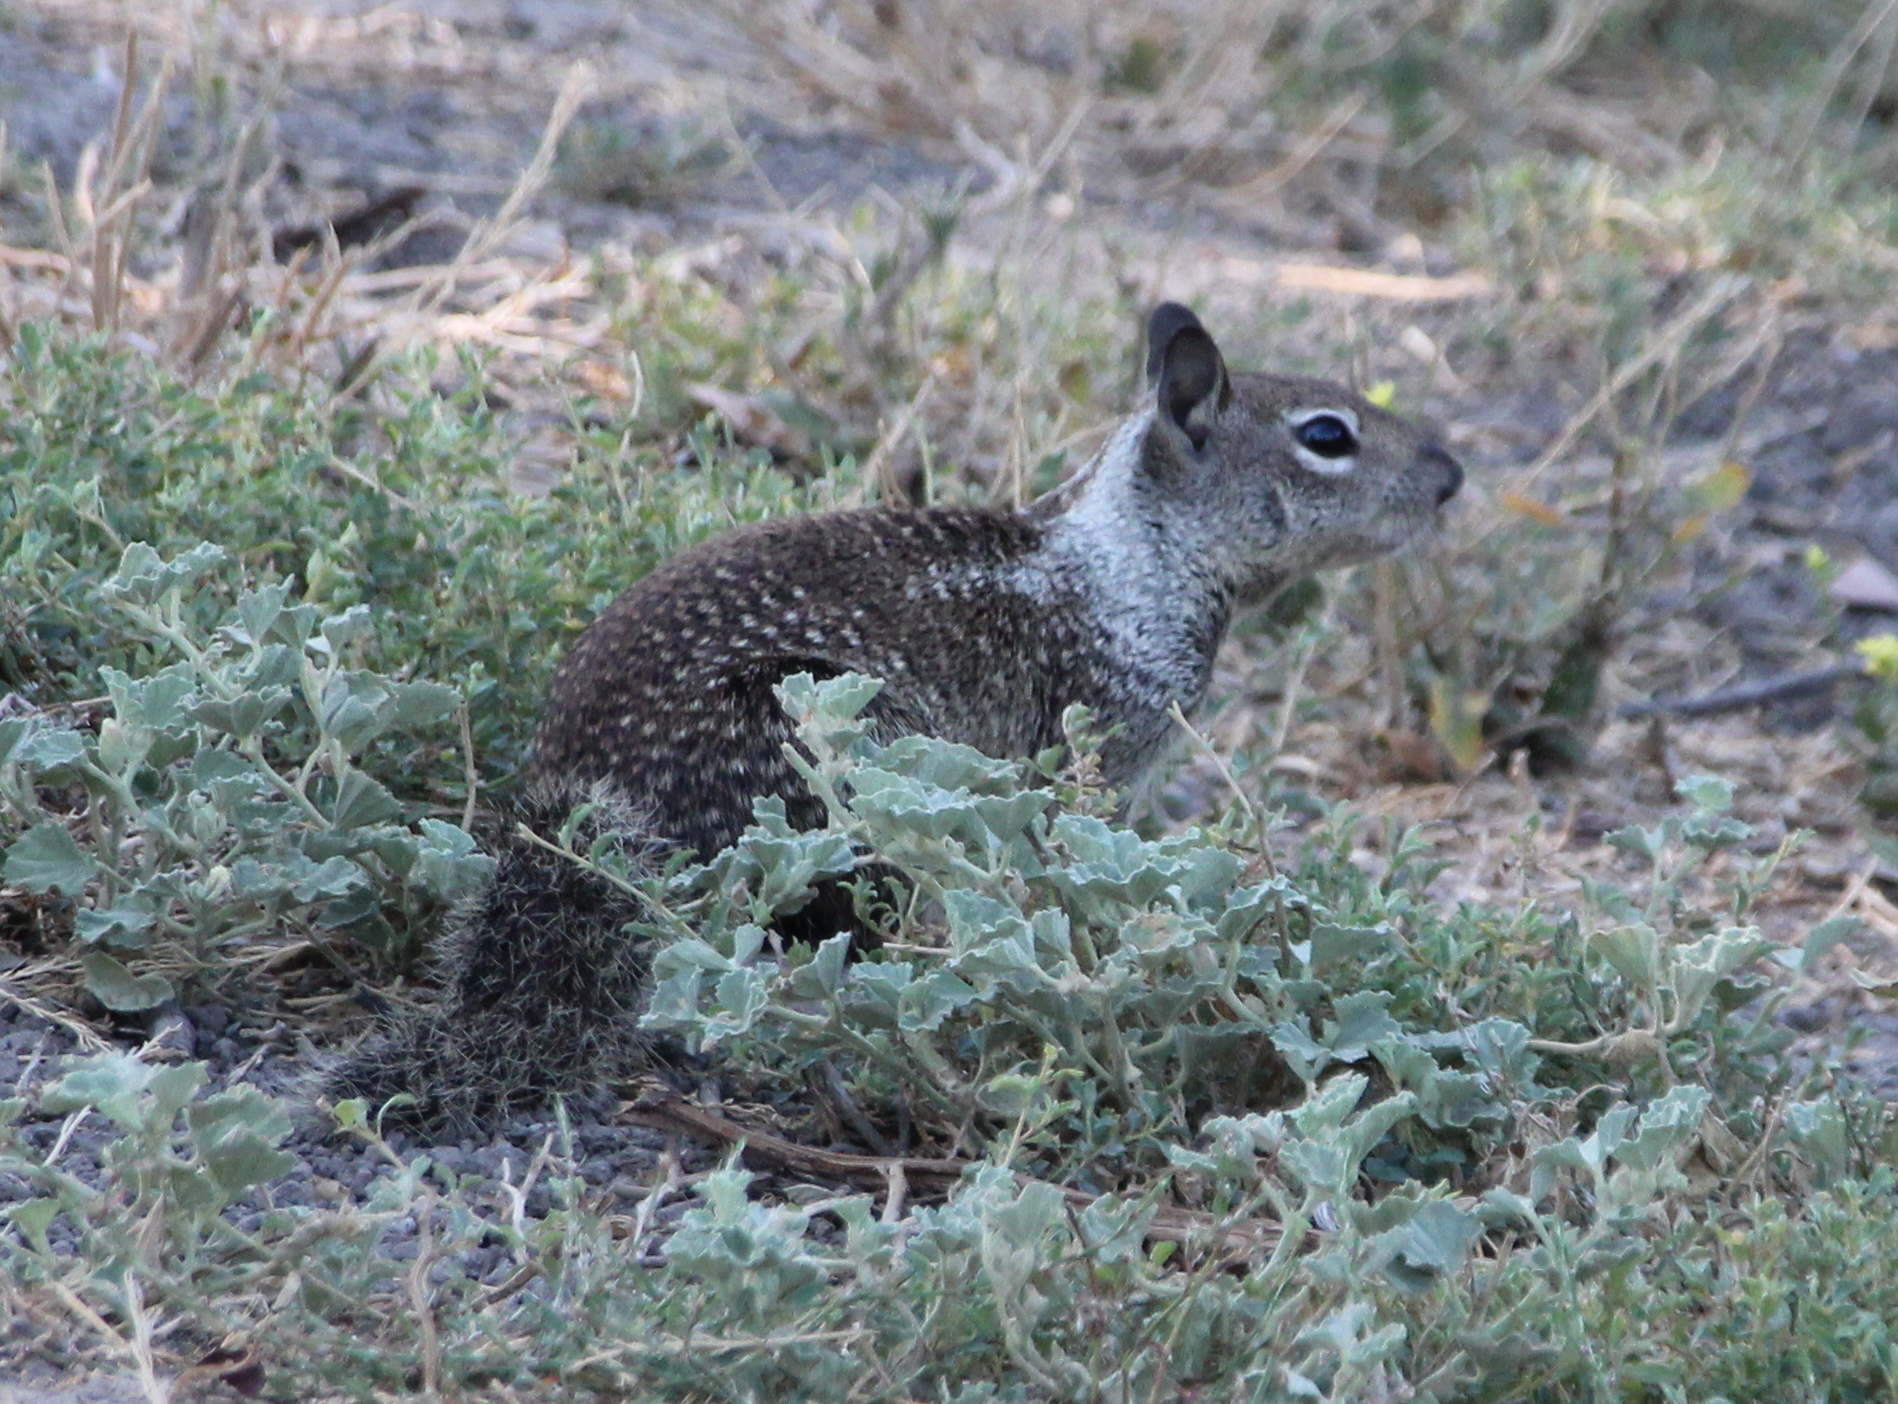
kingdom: Animalia
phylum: Chordata
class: Mammalia
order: Rodentia
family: Sciuridae
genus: Otospermophilus
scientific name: Otospermophilus beecheyi
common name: California ground squirrel
